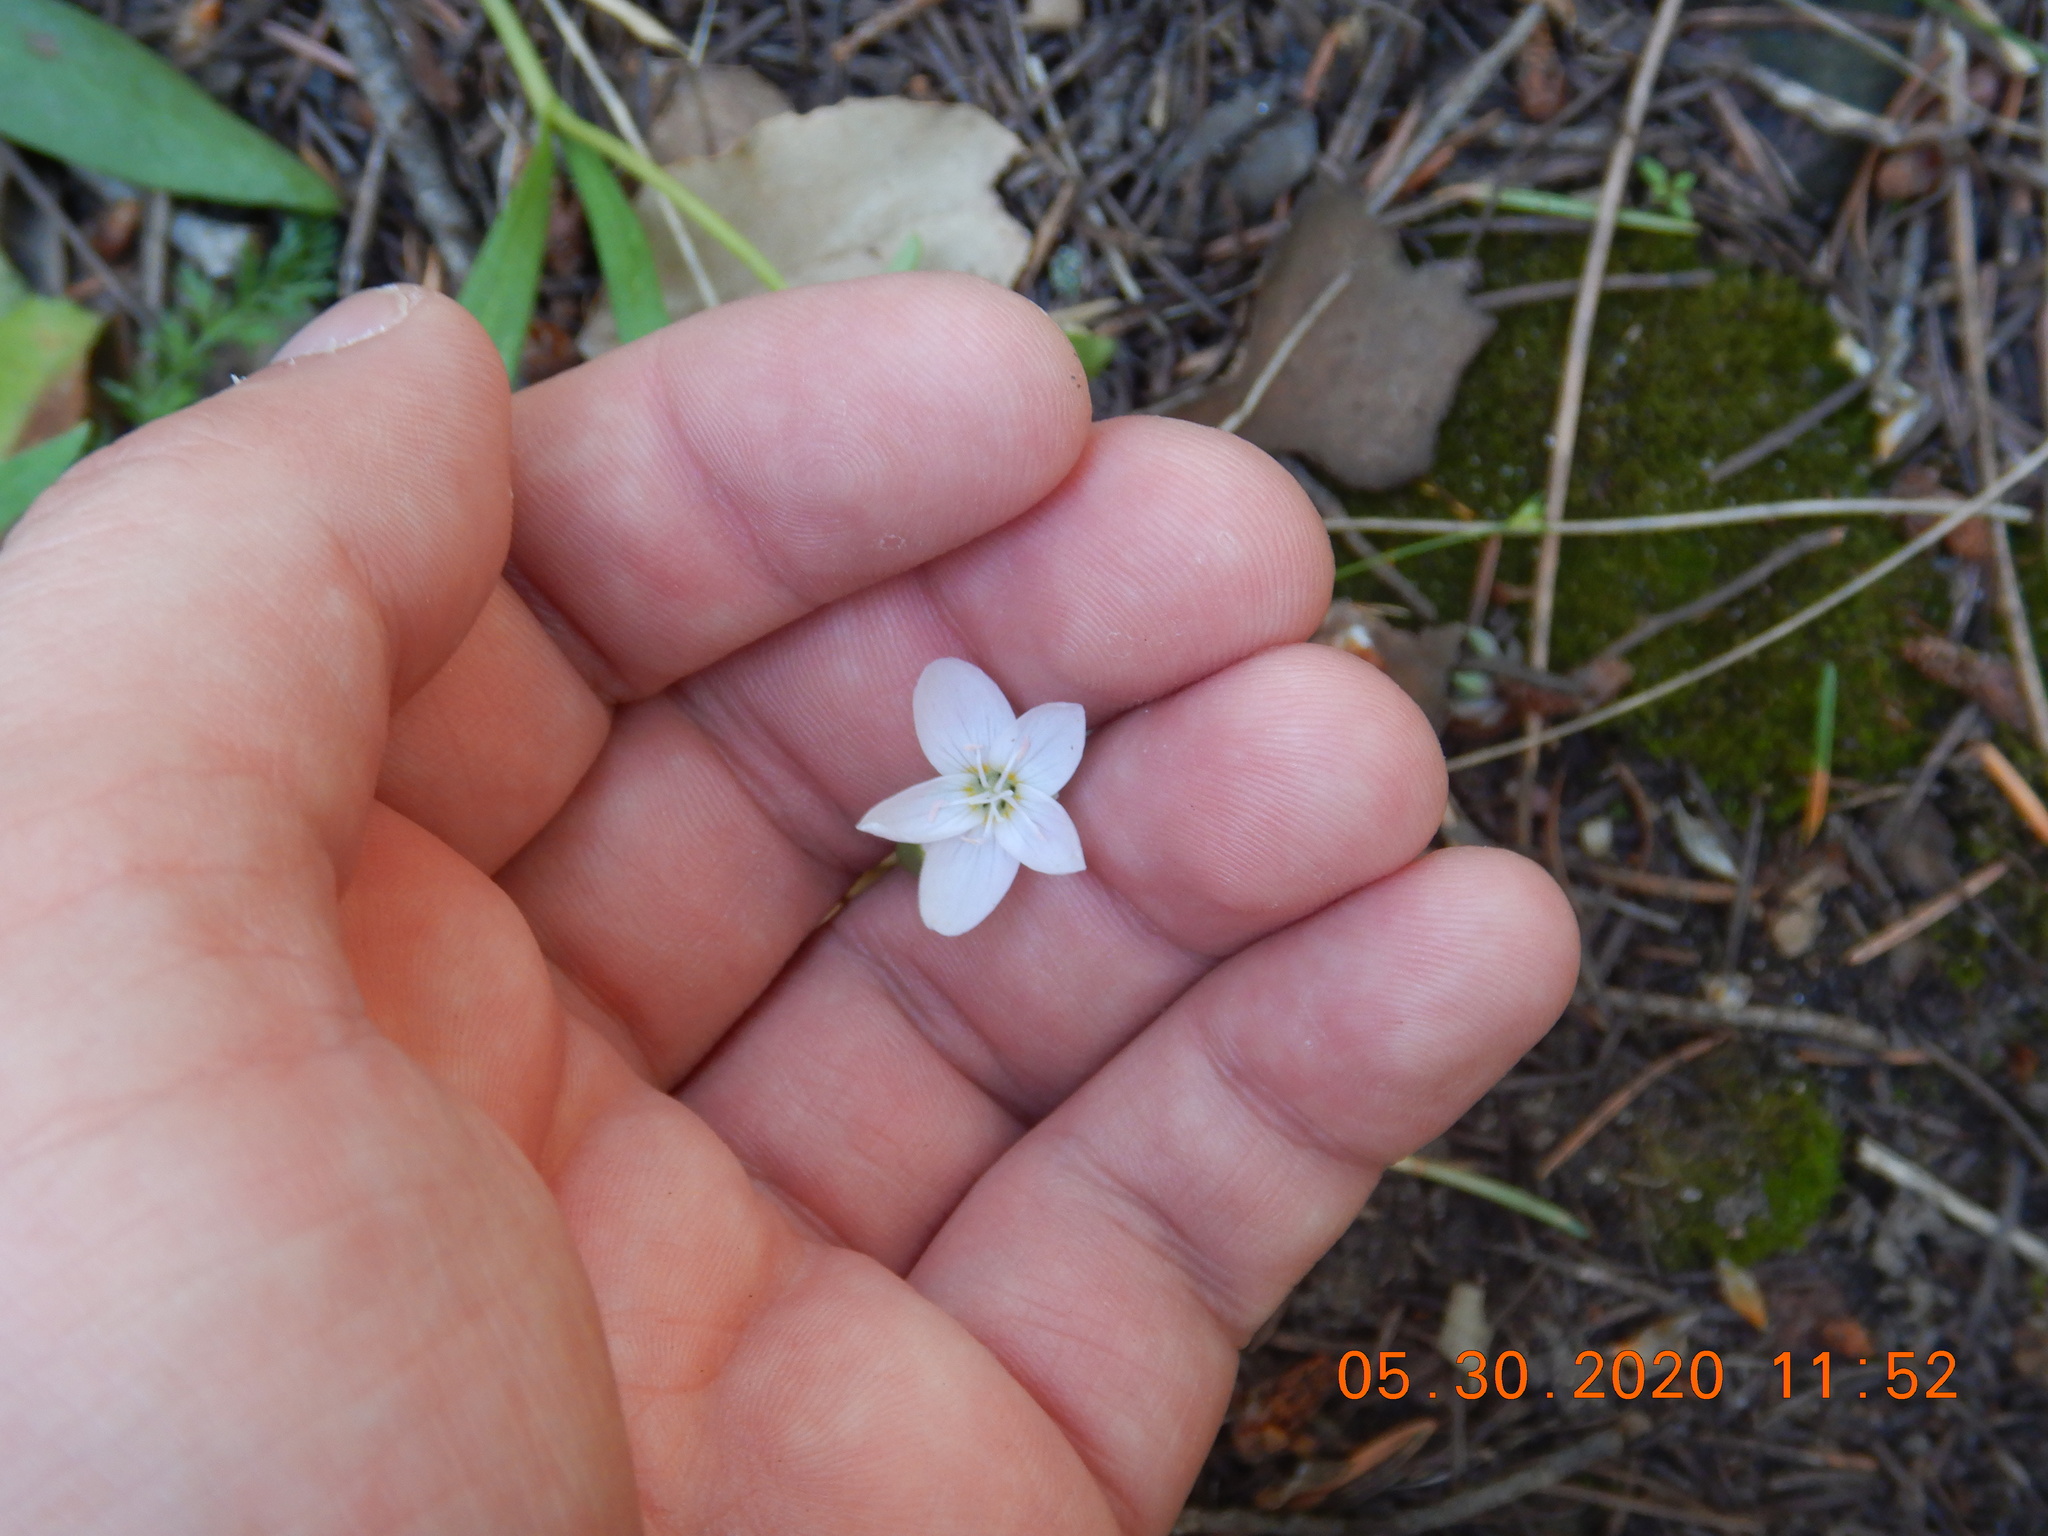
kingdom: Plantae
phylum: Tracheophyta
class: Magnoliopsida
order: Caryophyllales
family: Montiaceae
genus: Claytonia
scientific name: Claytonia rosea
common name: Rocky mountain spring-beauty
